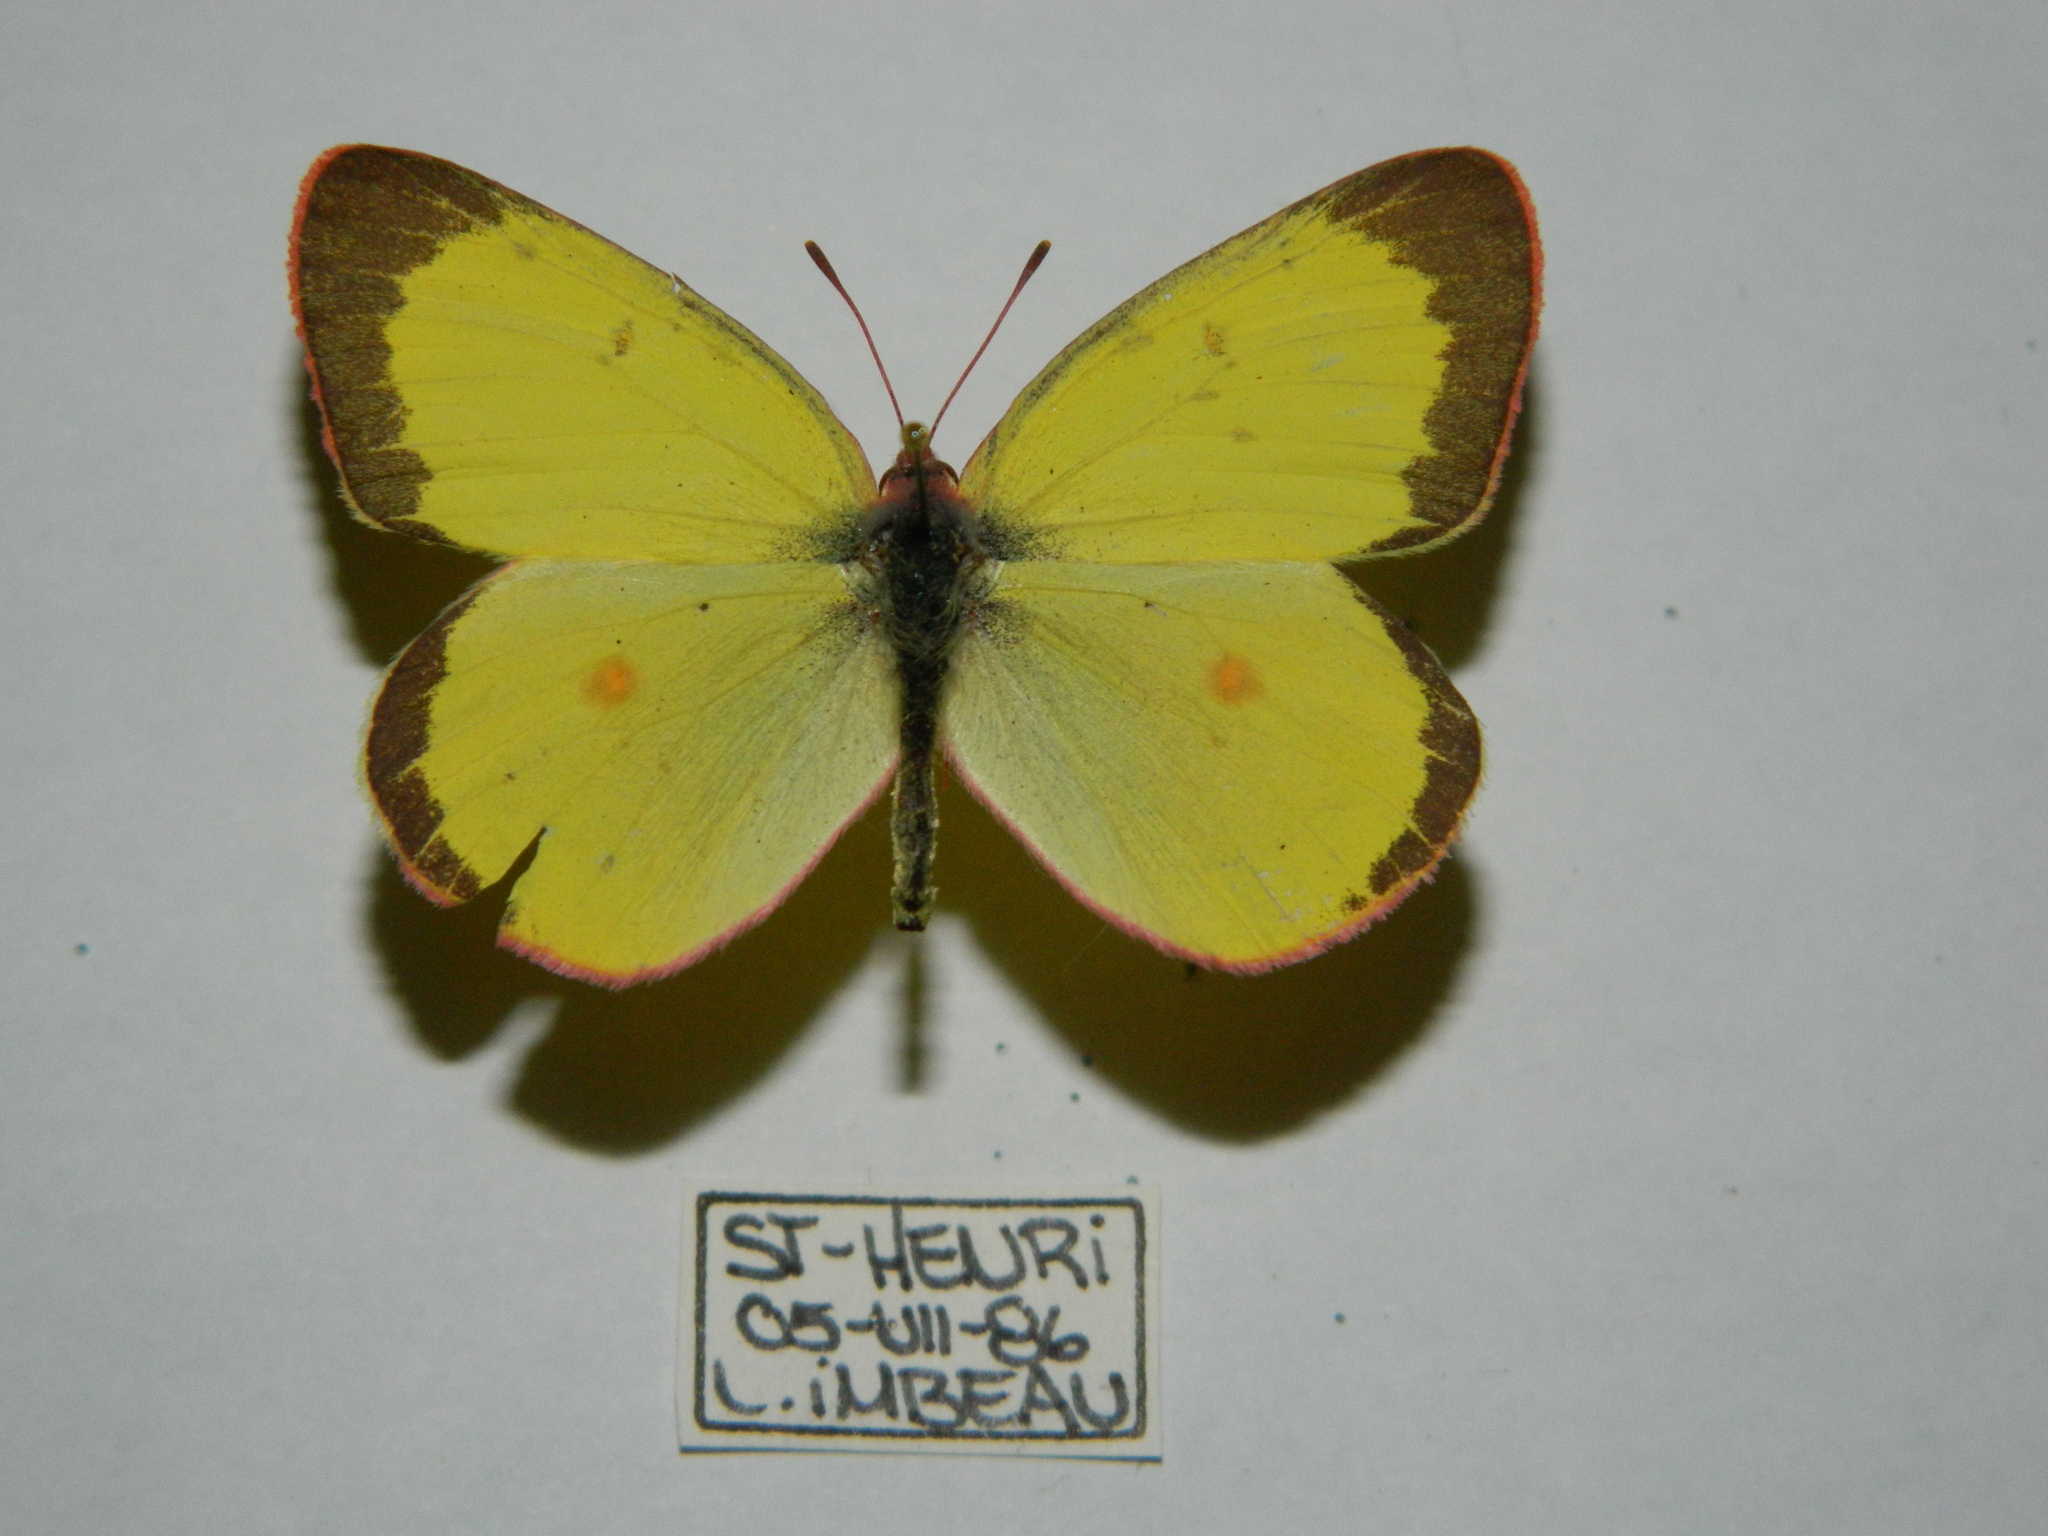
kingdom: Animalia
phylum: Arthropoda
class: Insecta
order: Lepidoptera
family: Pieridae
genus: Colias
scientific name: Colias interior
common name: Pink-edged sulphur
